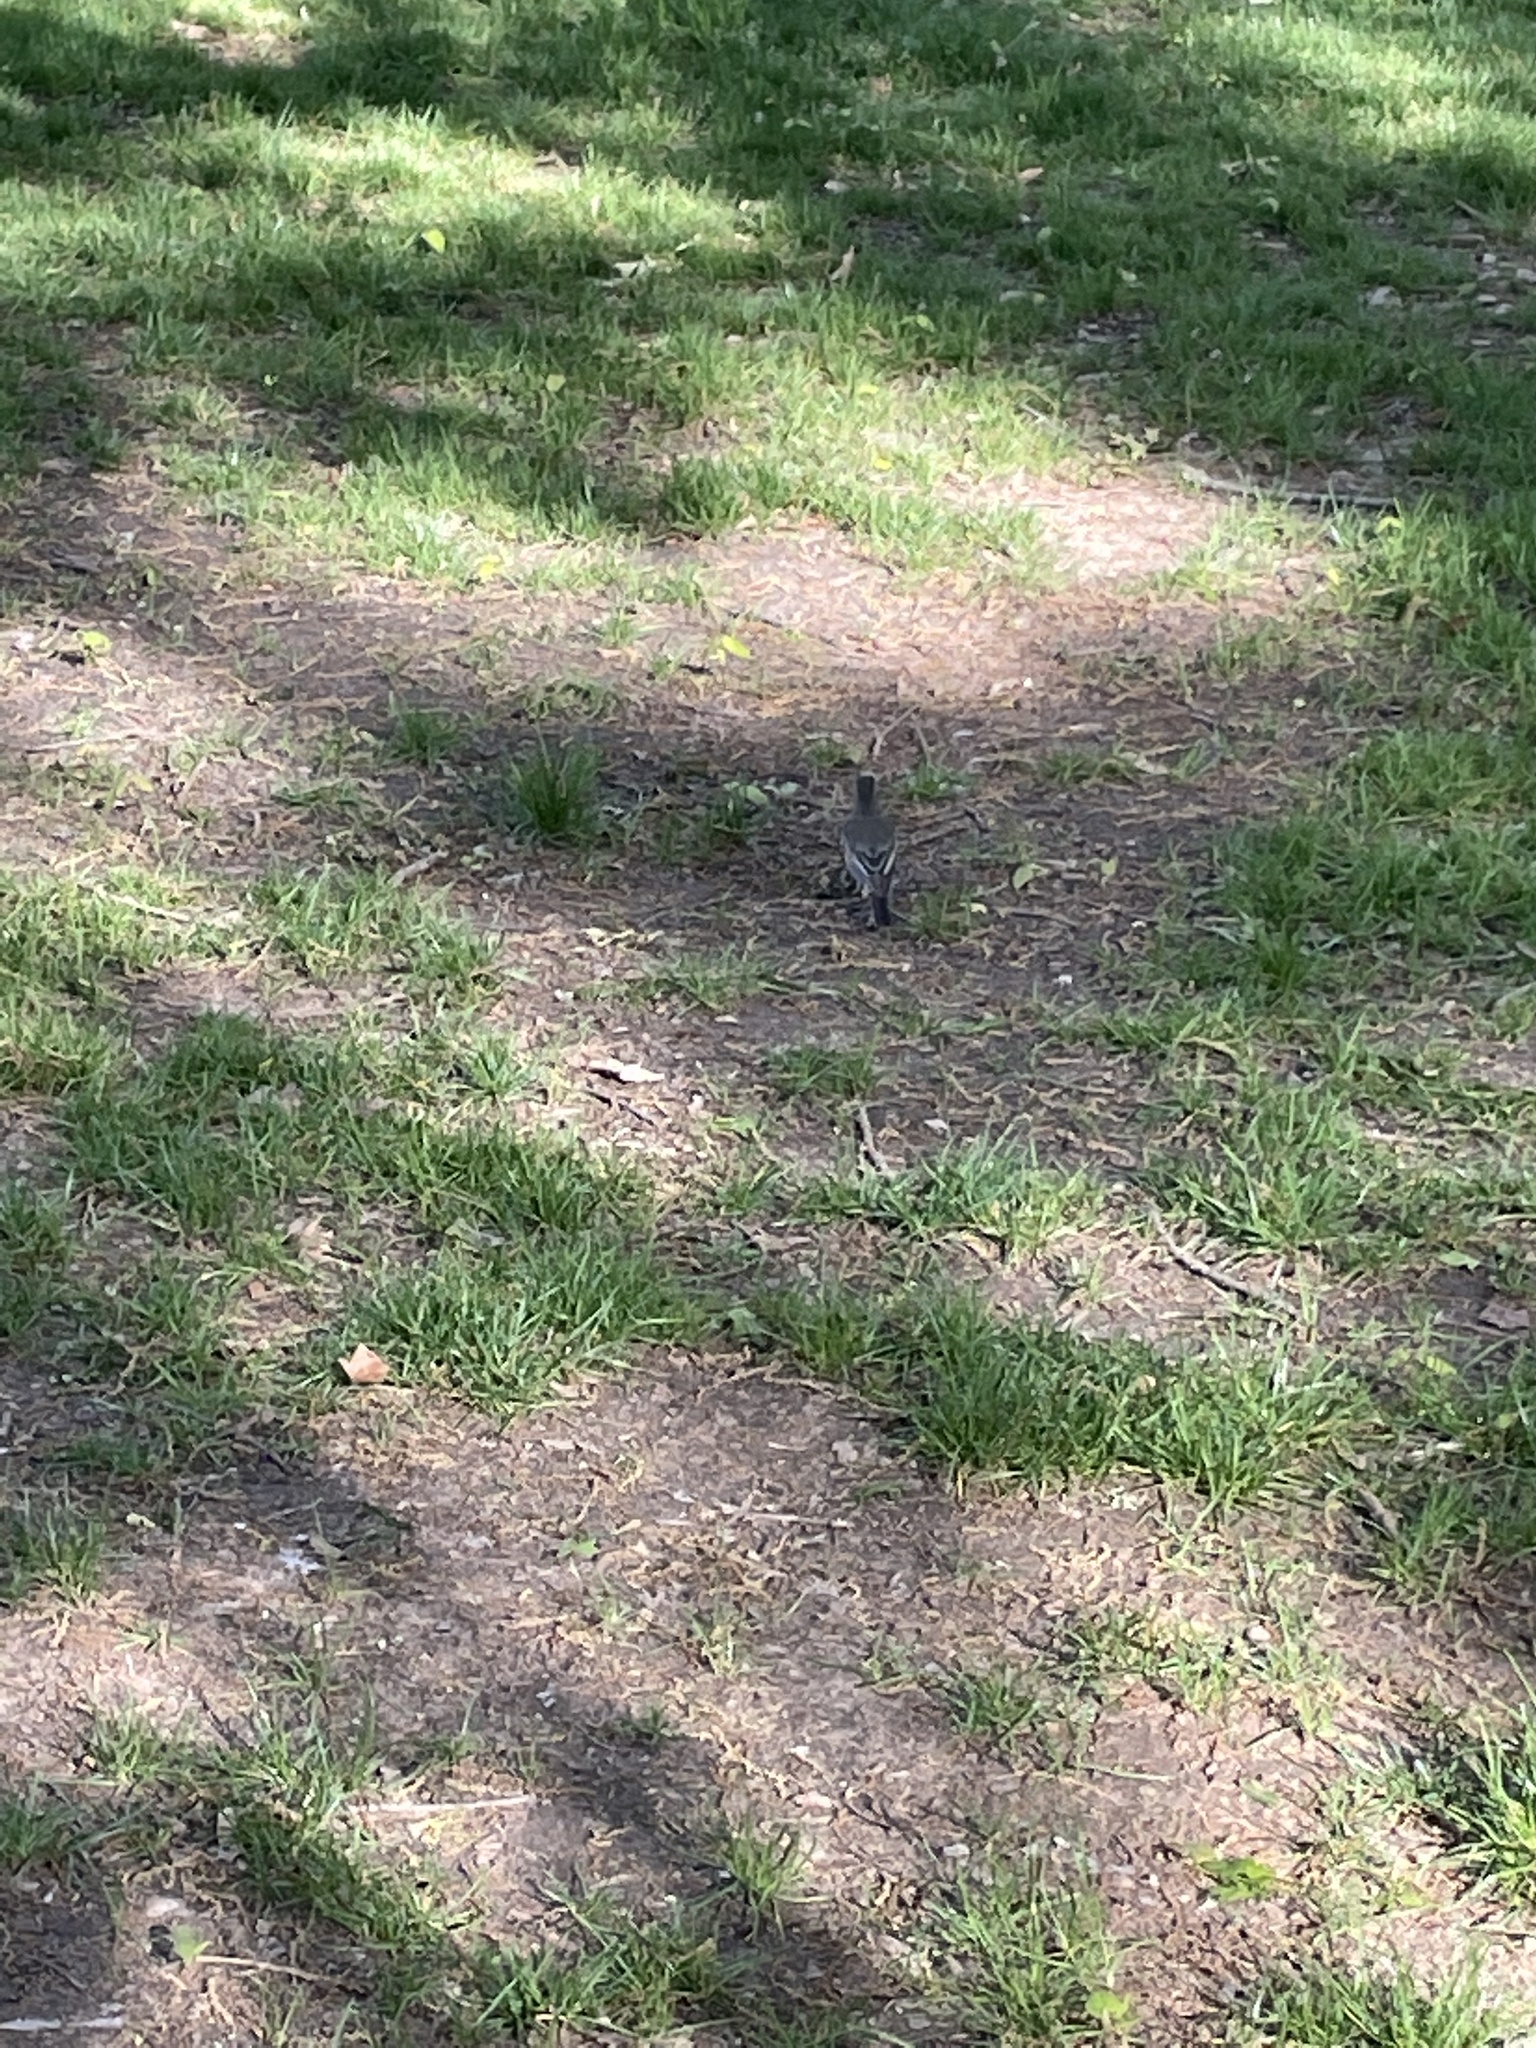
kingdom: Animalia
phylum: Chordata
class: Aves
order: Passeriformes
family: Turdidae
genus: Turdus
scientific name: Turdus migratorius
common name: American robin
